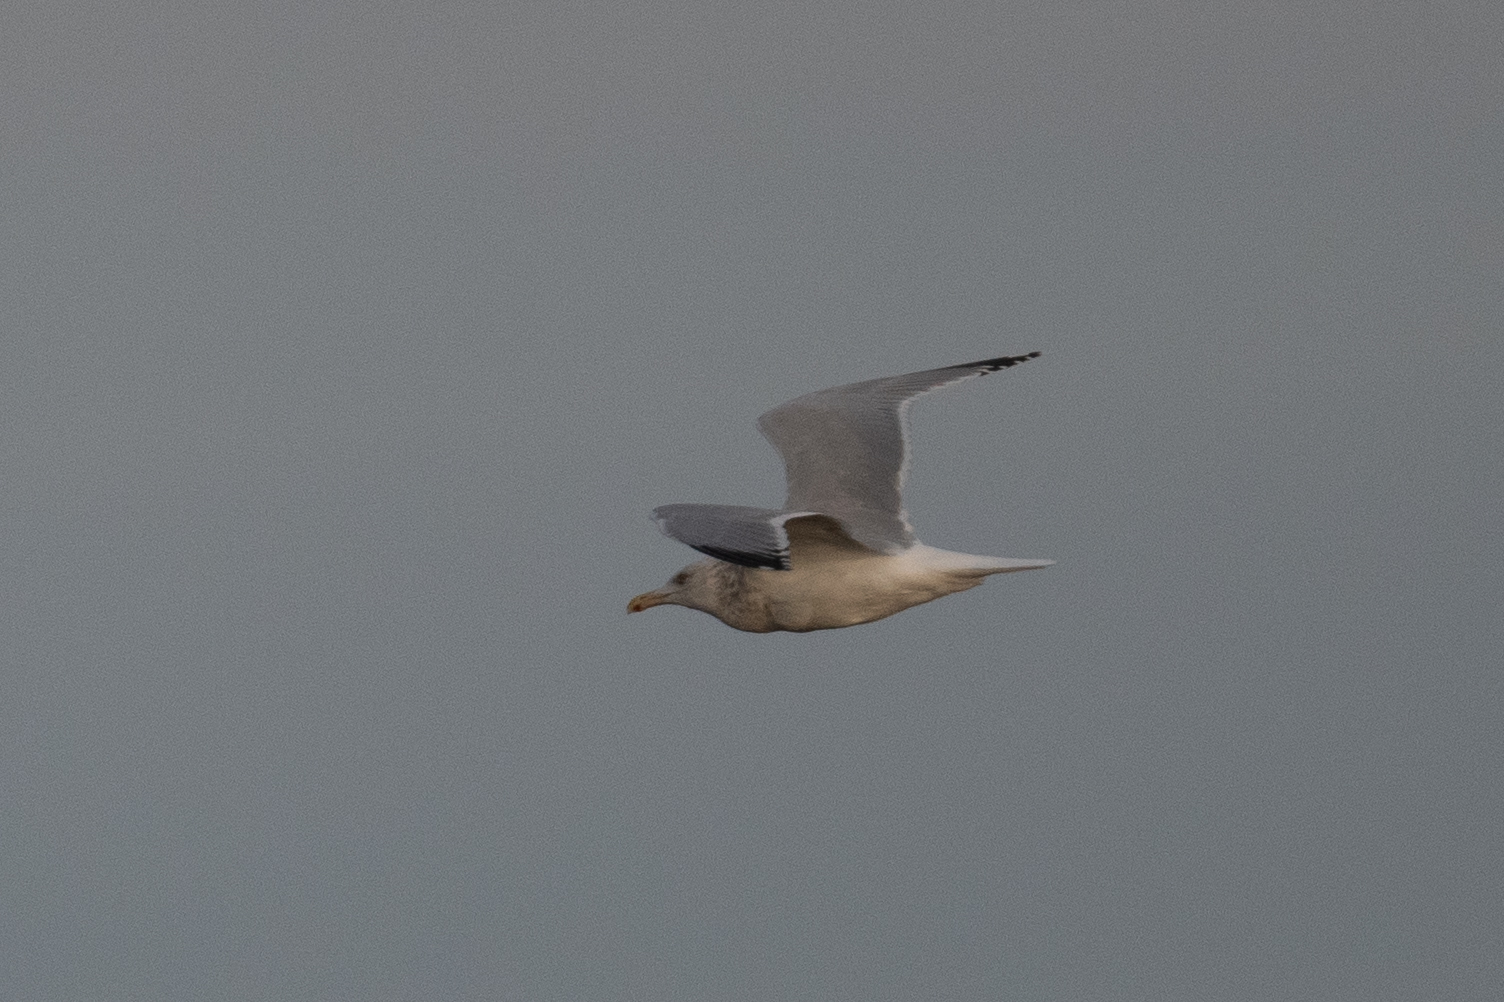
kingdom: Animalia
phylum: Chordata
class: Aves
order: Charadriiformes
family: Laridae
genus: Larus
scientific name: Larus argentatus
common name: Herring gull
